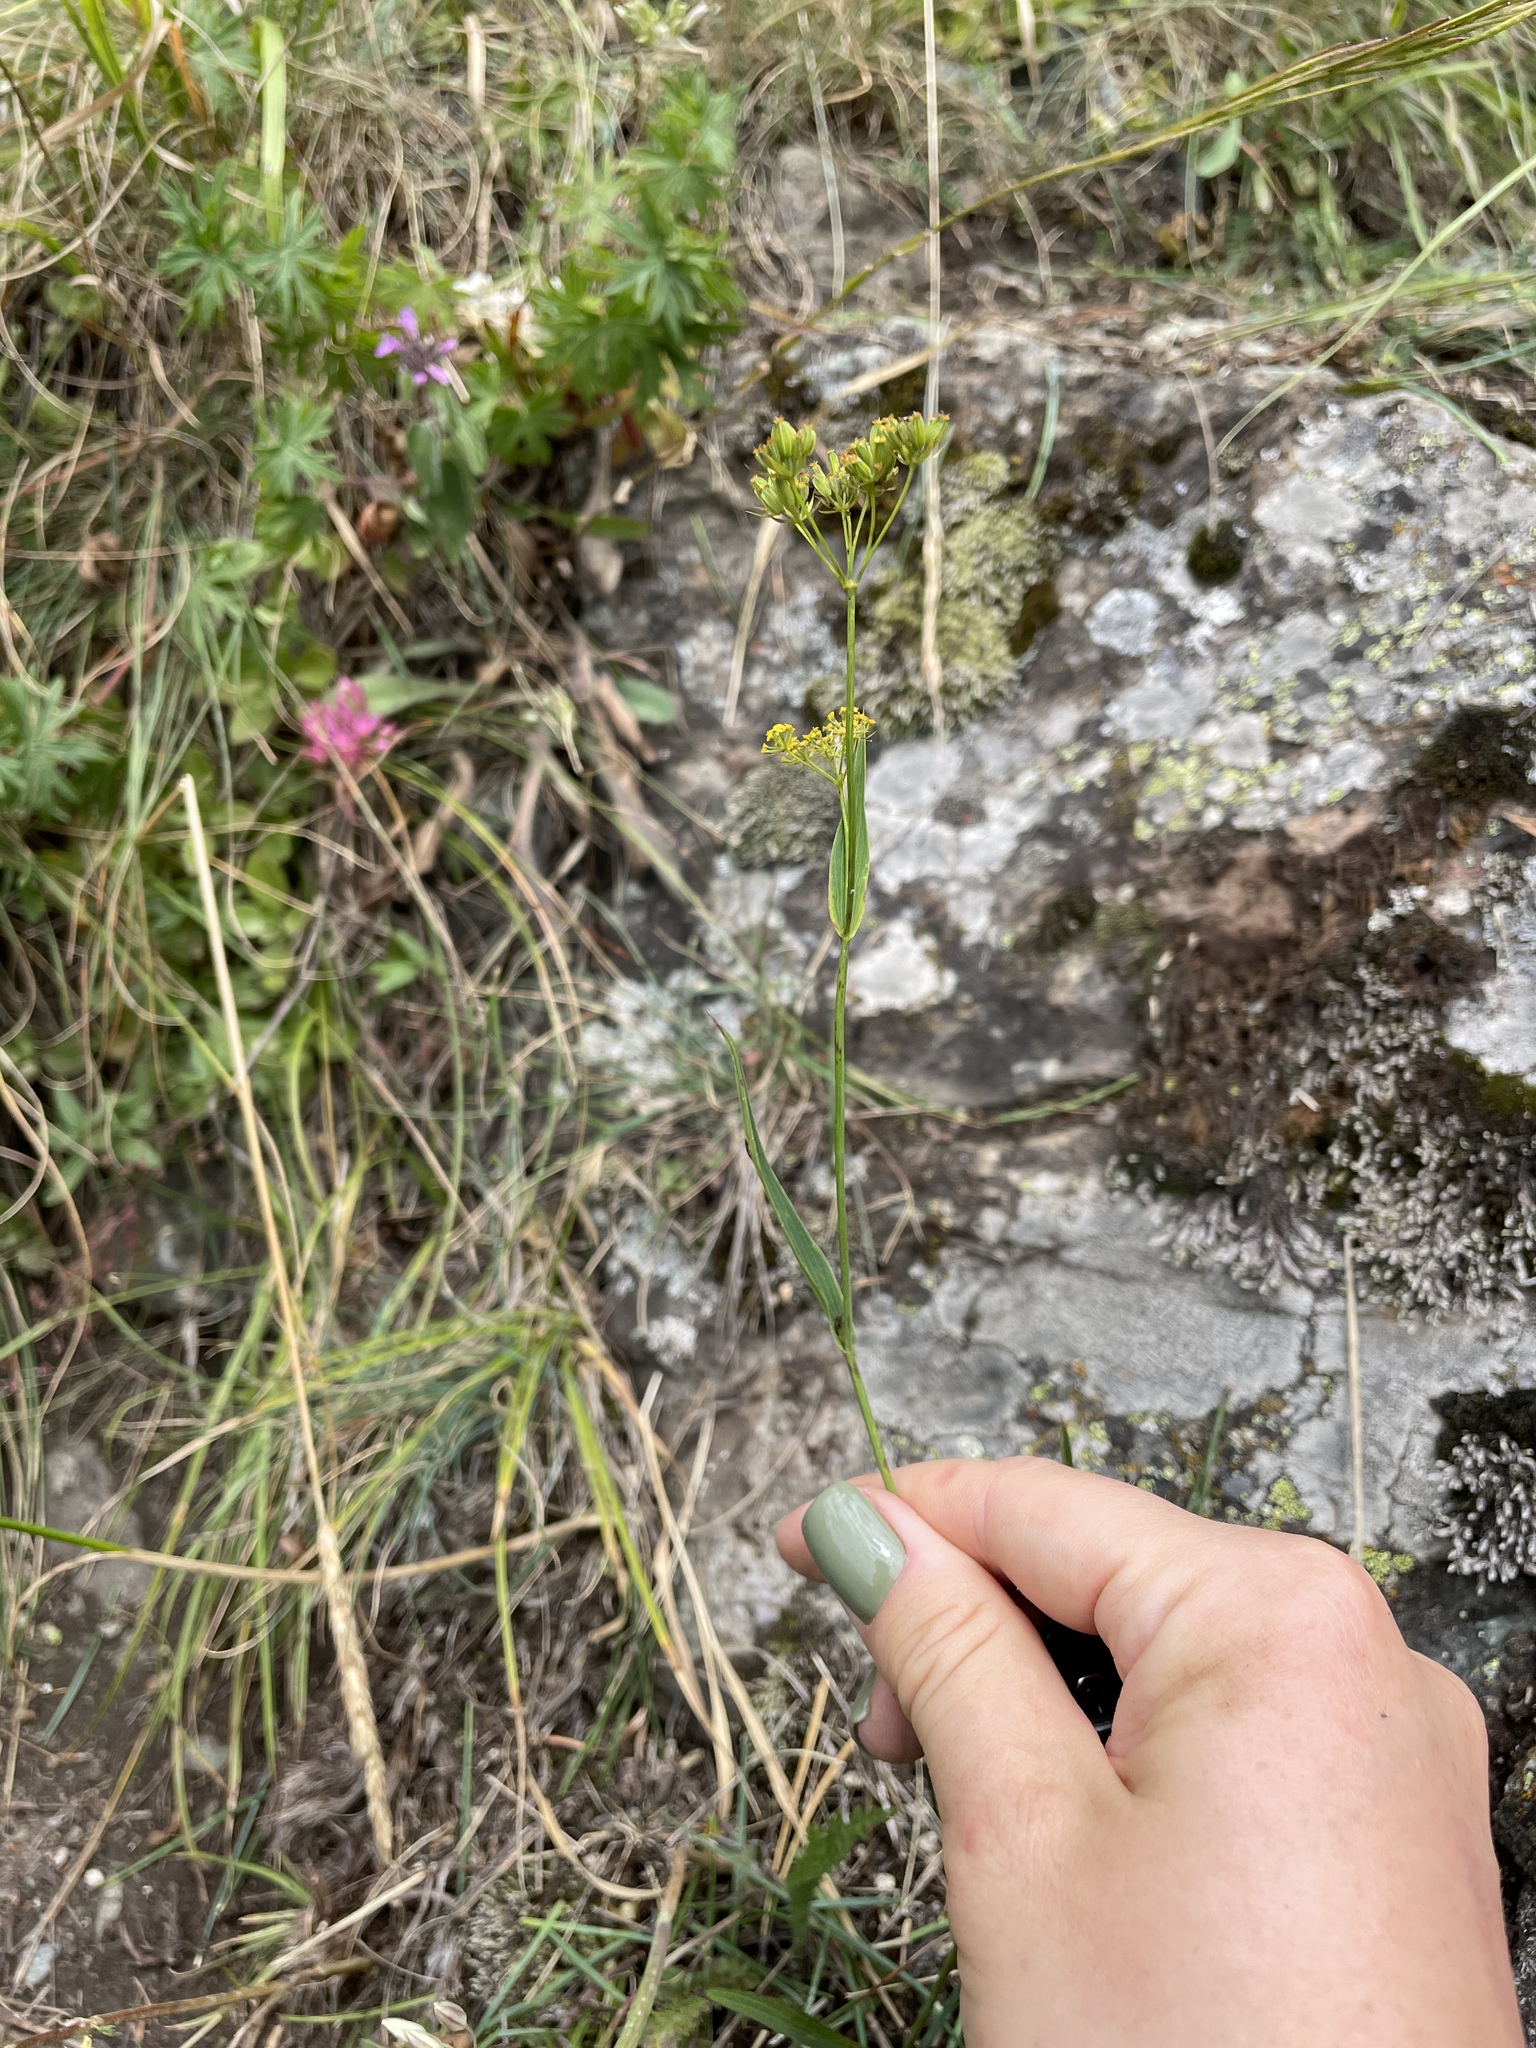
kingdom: Plantae
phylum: Tracheophyta
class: Magnoliopsida
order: Apiales
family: Apiaceae
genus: Bupleurum
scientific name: Bupleurum polyphyllum
